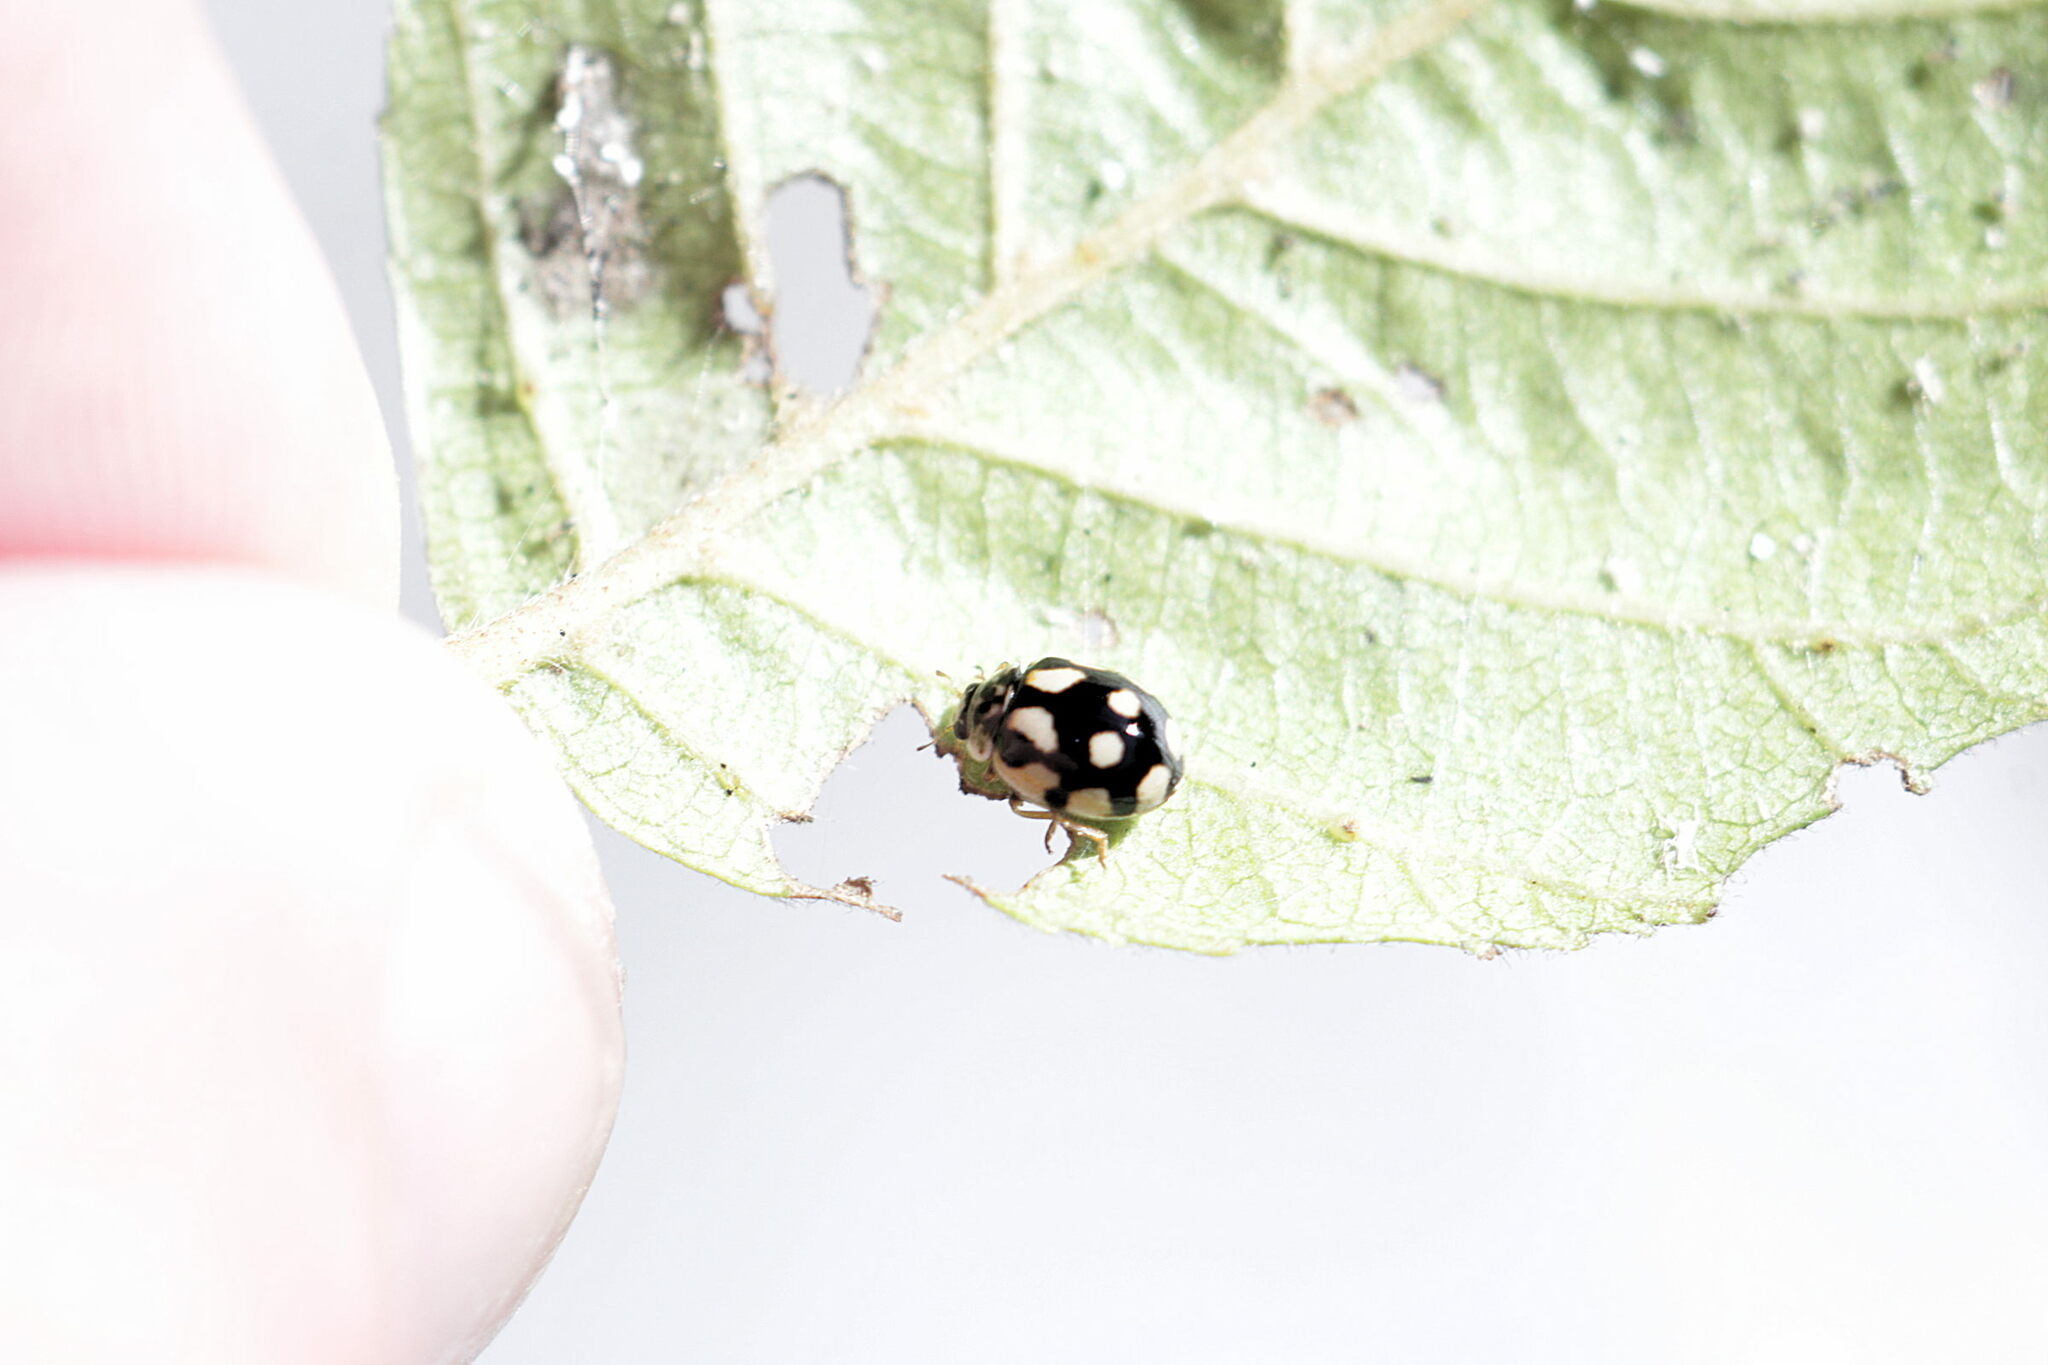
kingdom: Animalia
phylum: Arthropoda
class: Insecta
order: Coleoptera
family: Coccinellidae
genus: Adalia
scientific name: Adalia decempunctata
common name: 10-spot ladybird
